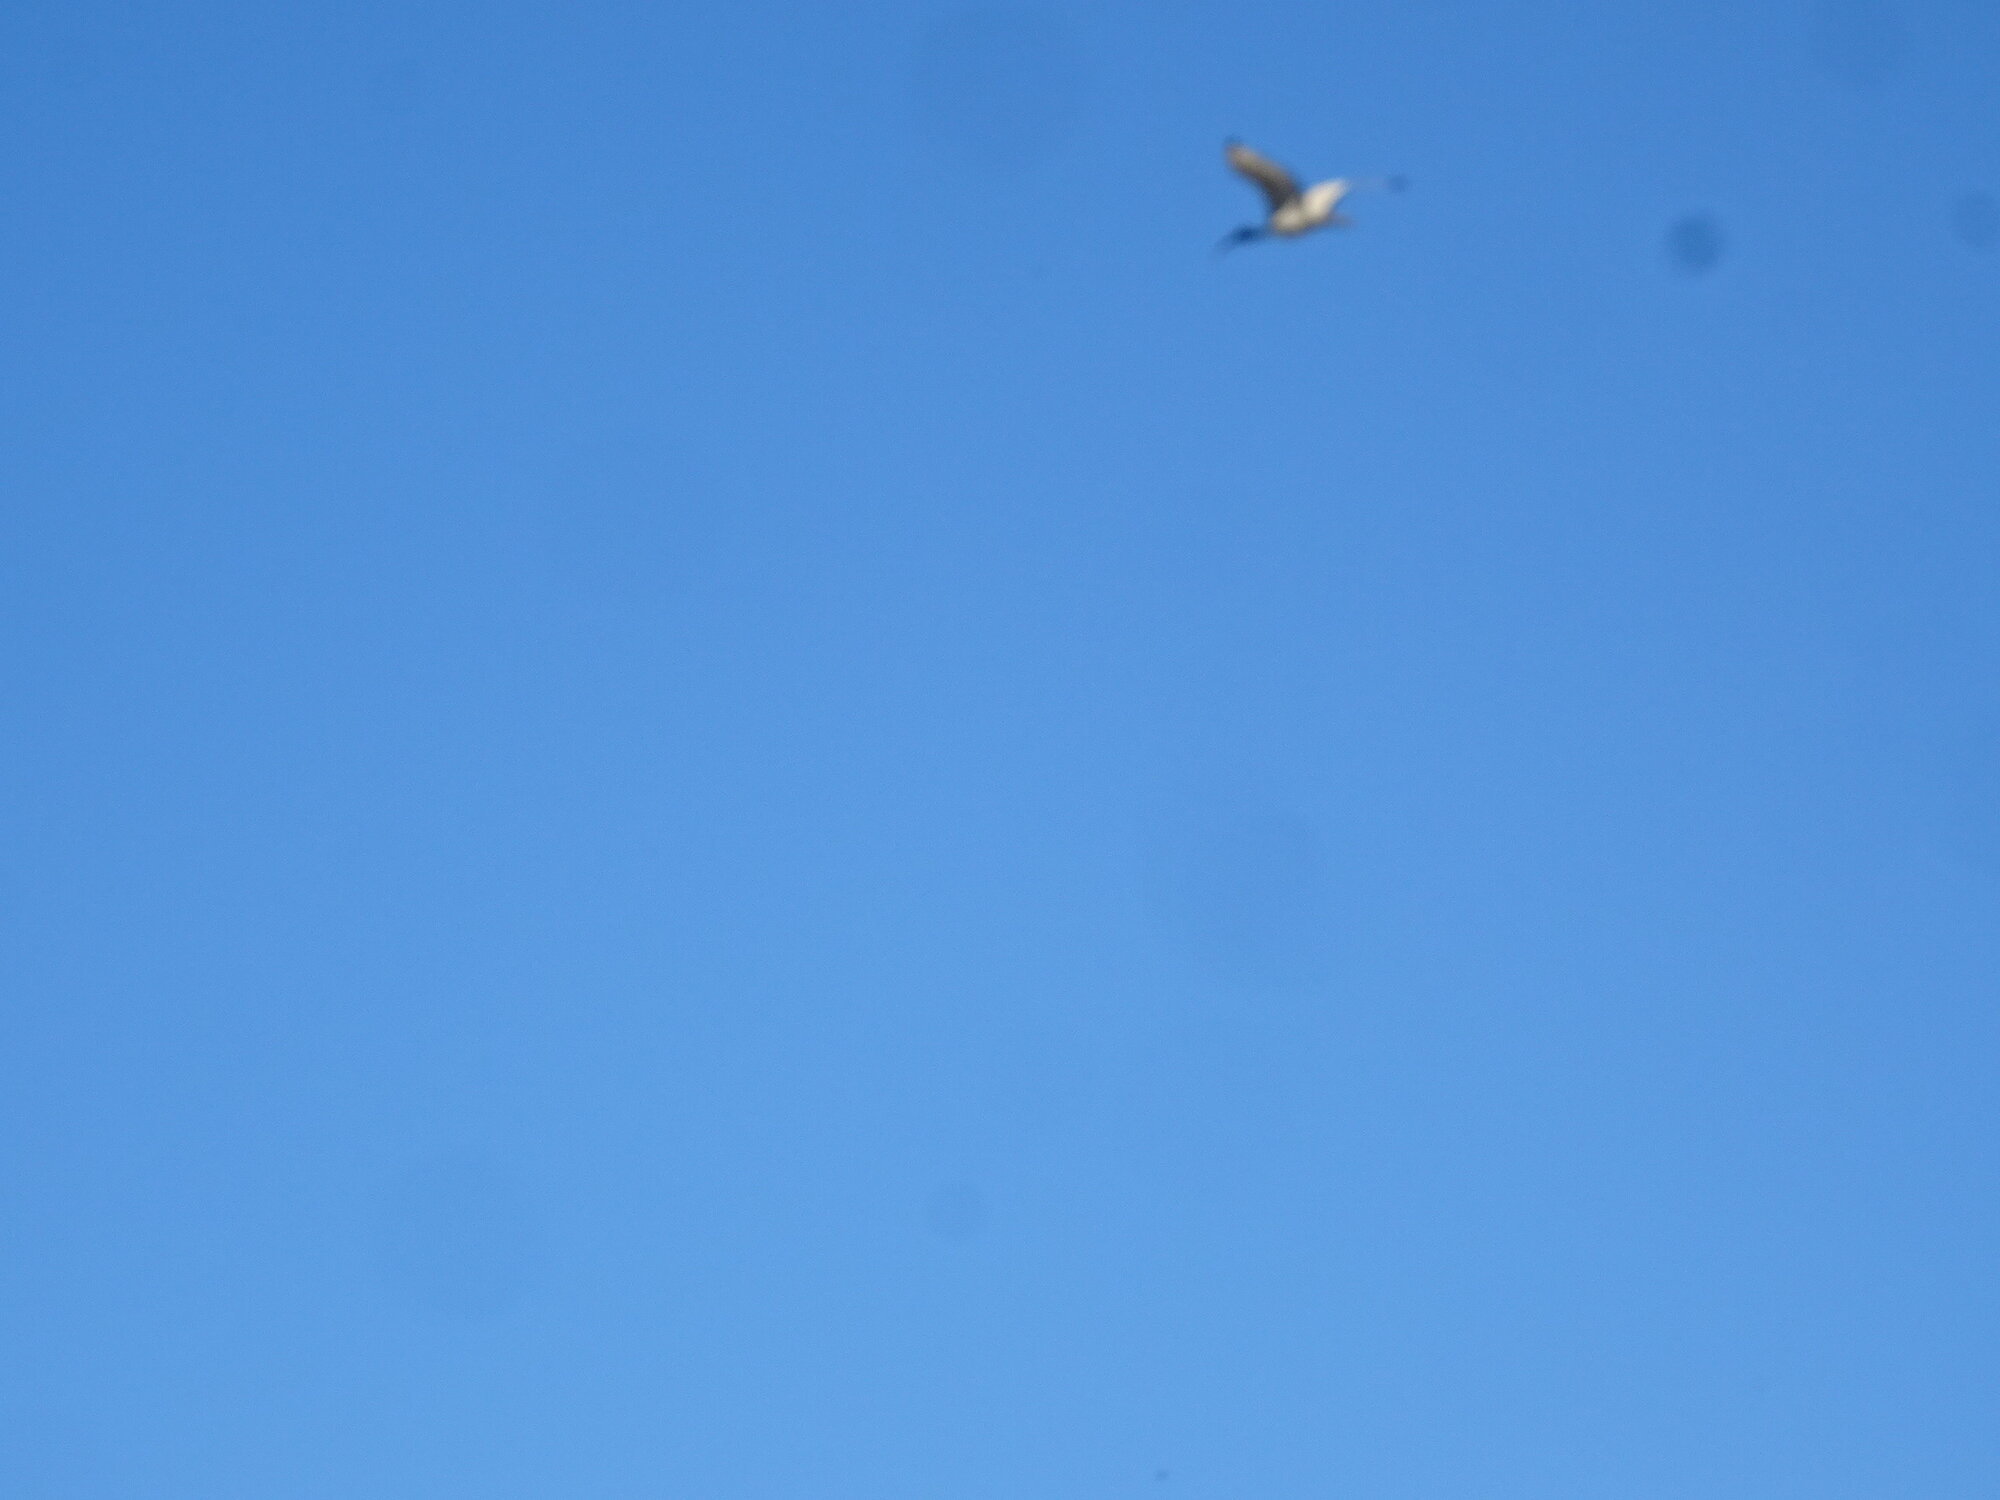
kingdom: Animalia
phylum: Chordata
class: Aves
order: Pelecaniformes
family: Threskiornithidae
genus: Threskiornis
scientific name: Threskiornis aethiopicus
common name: Sacred ibis
